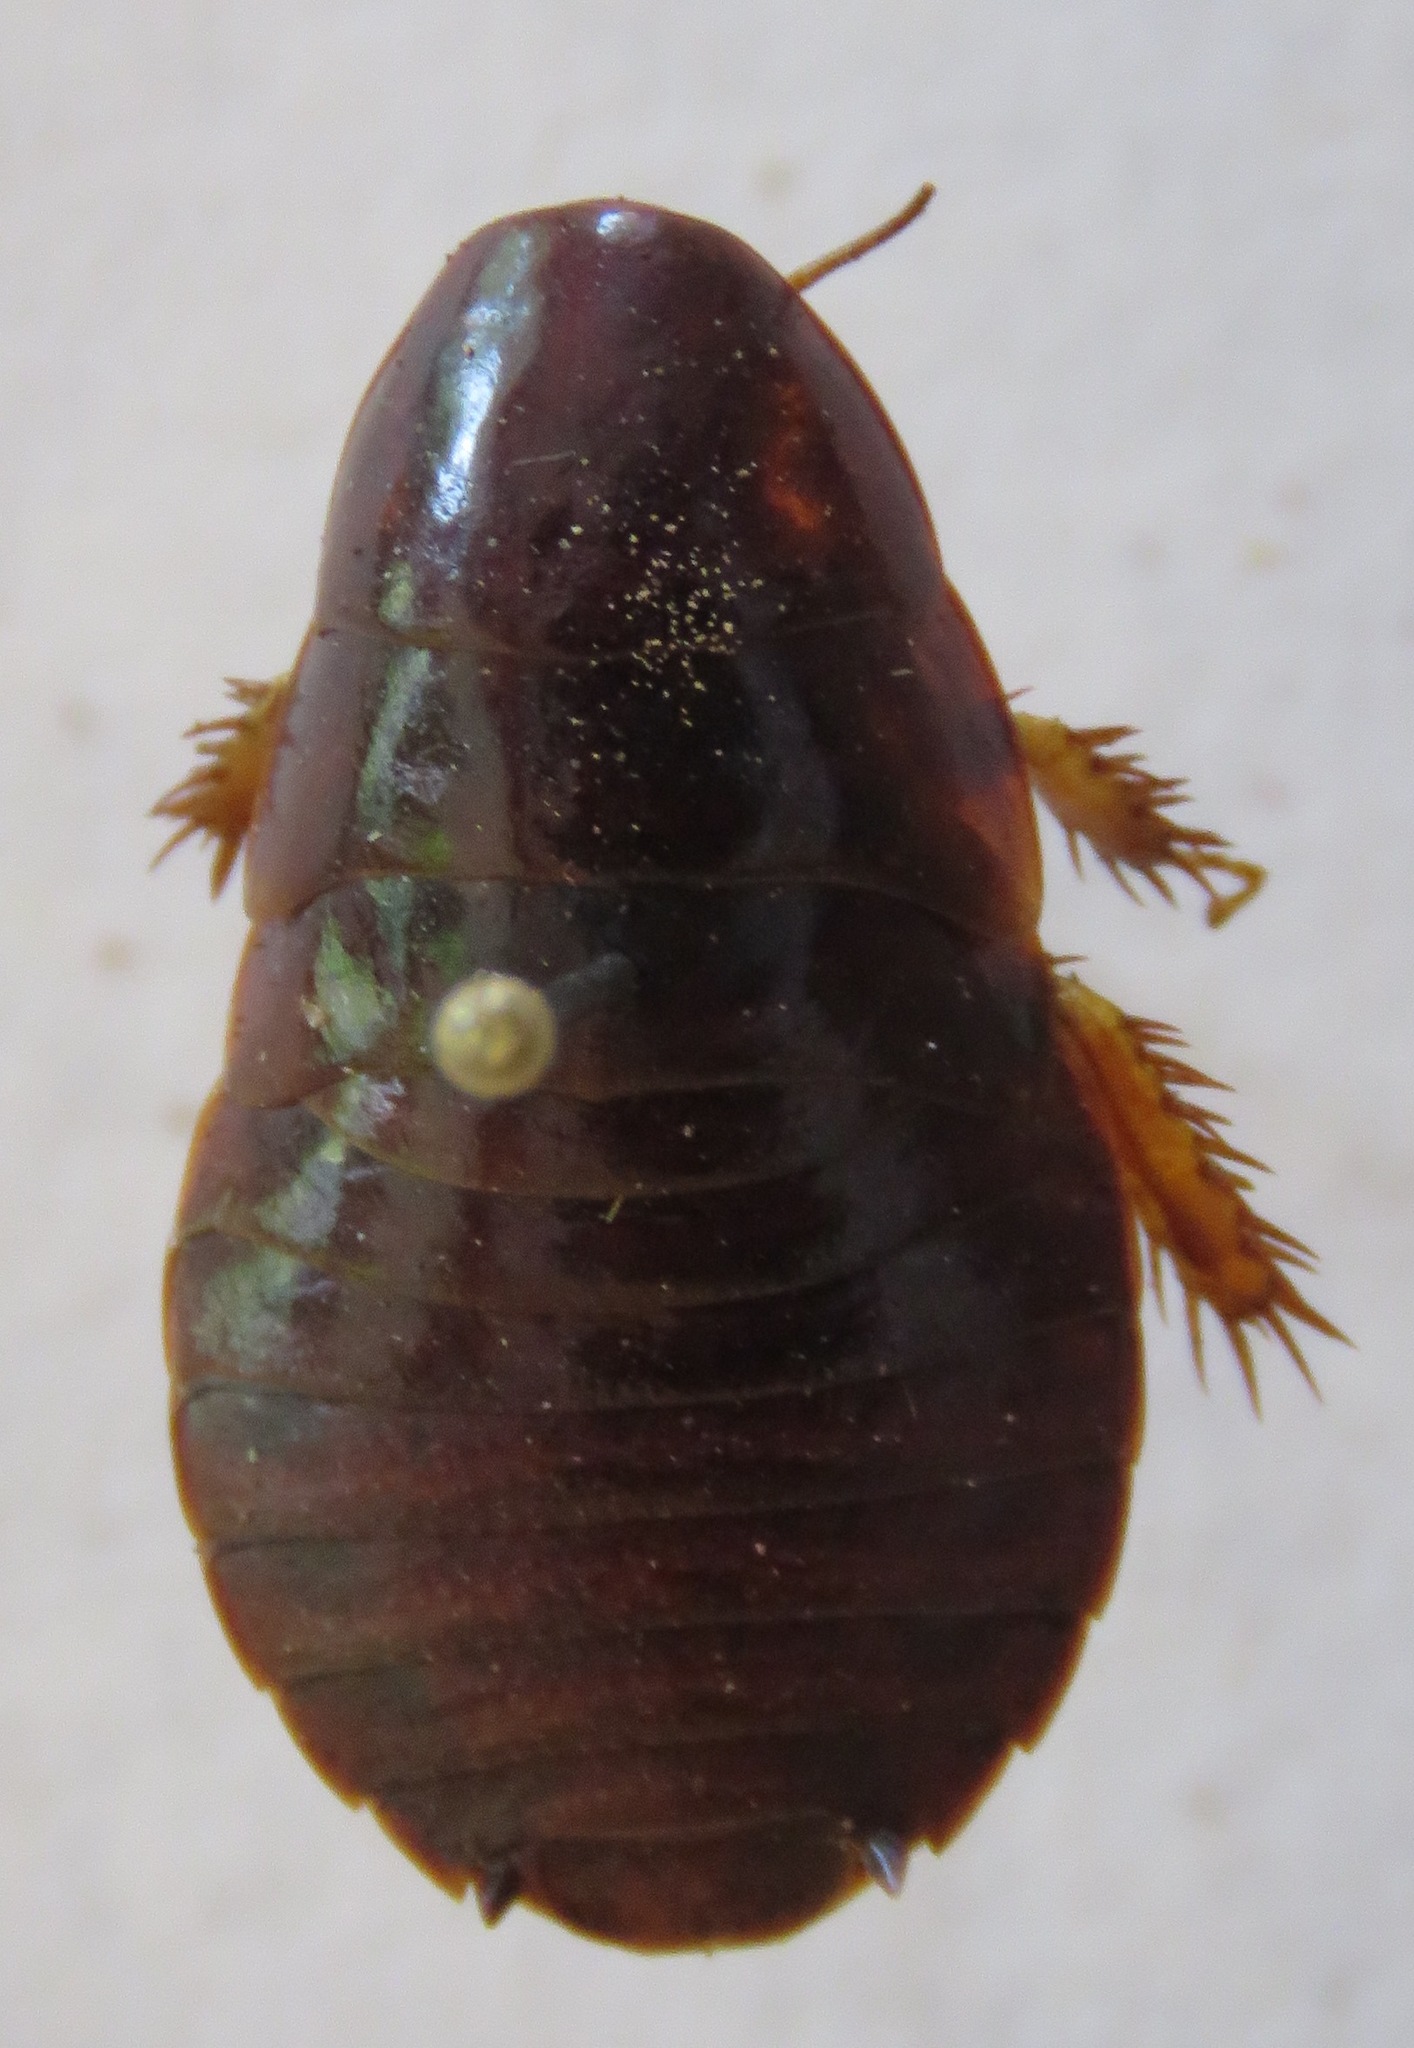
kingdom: Animalia
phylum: Arthropoda
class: Insecta
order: Blattodea
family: Blaberidae
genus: Pycnoscelus
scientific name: Pycnoscelus surinamensis
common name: Surinam cockroach
